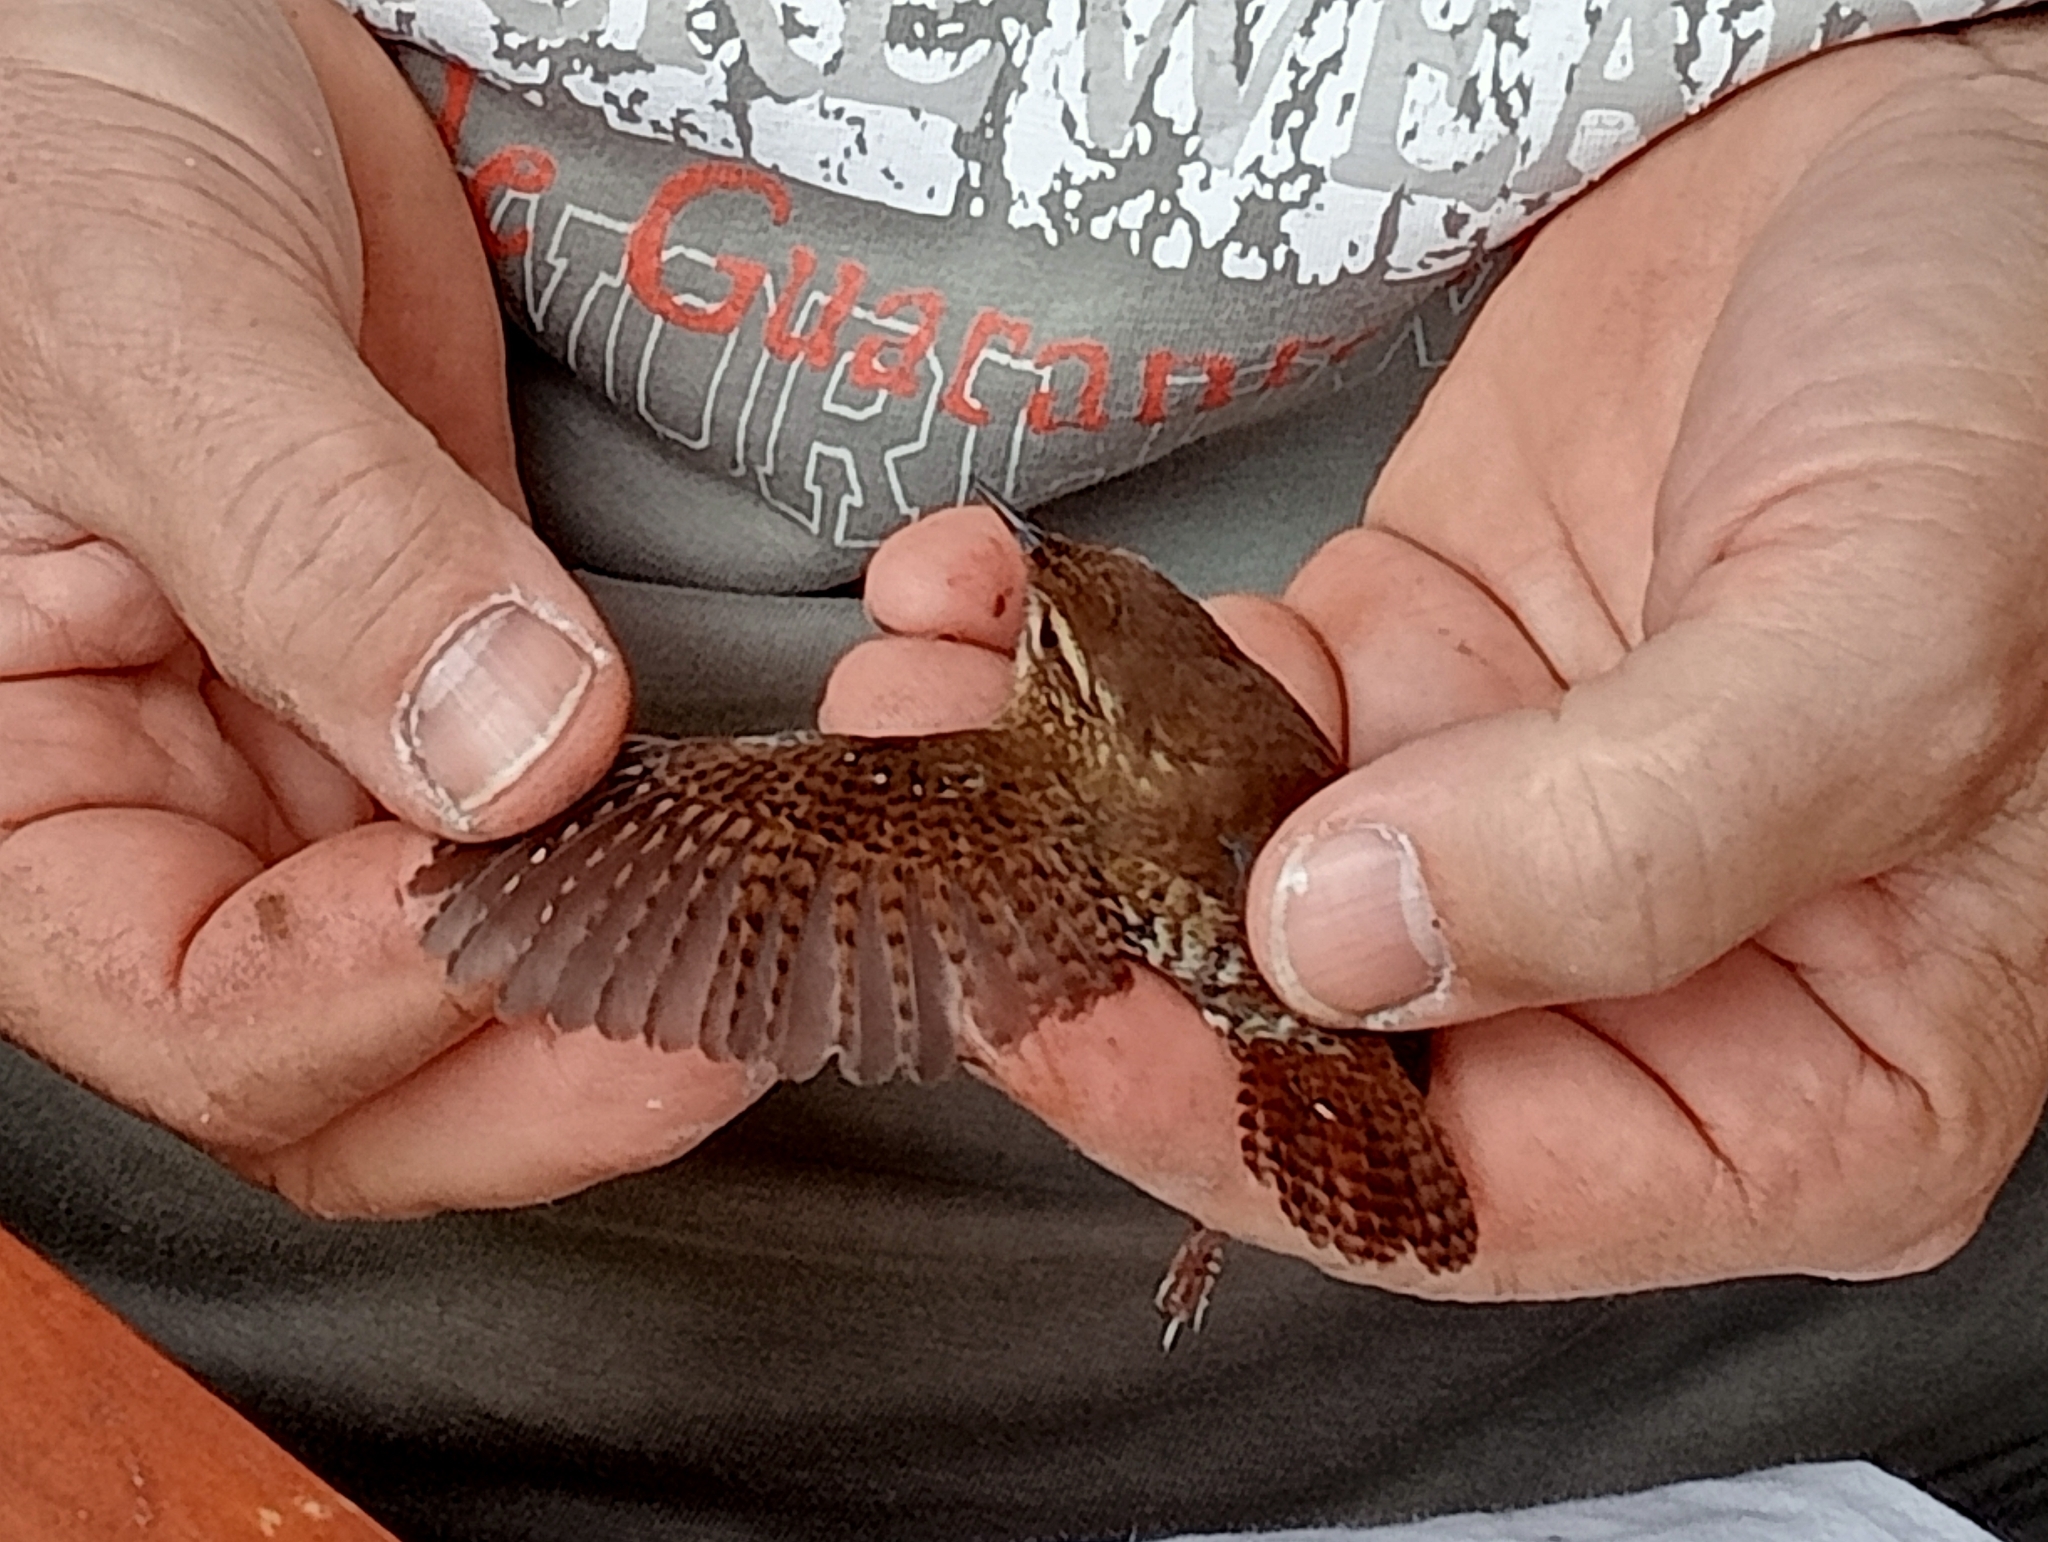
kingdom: Animalia
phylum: Chordata
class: Aves
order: Passeriformes
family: Troglodytidae
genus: Troglodytes
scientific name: Troglodytes troglodytes
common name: Eurasian wren
